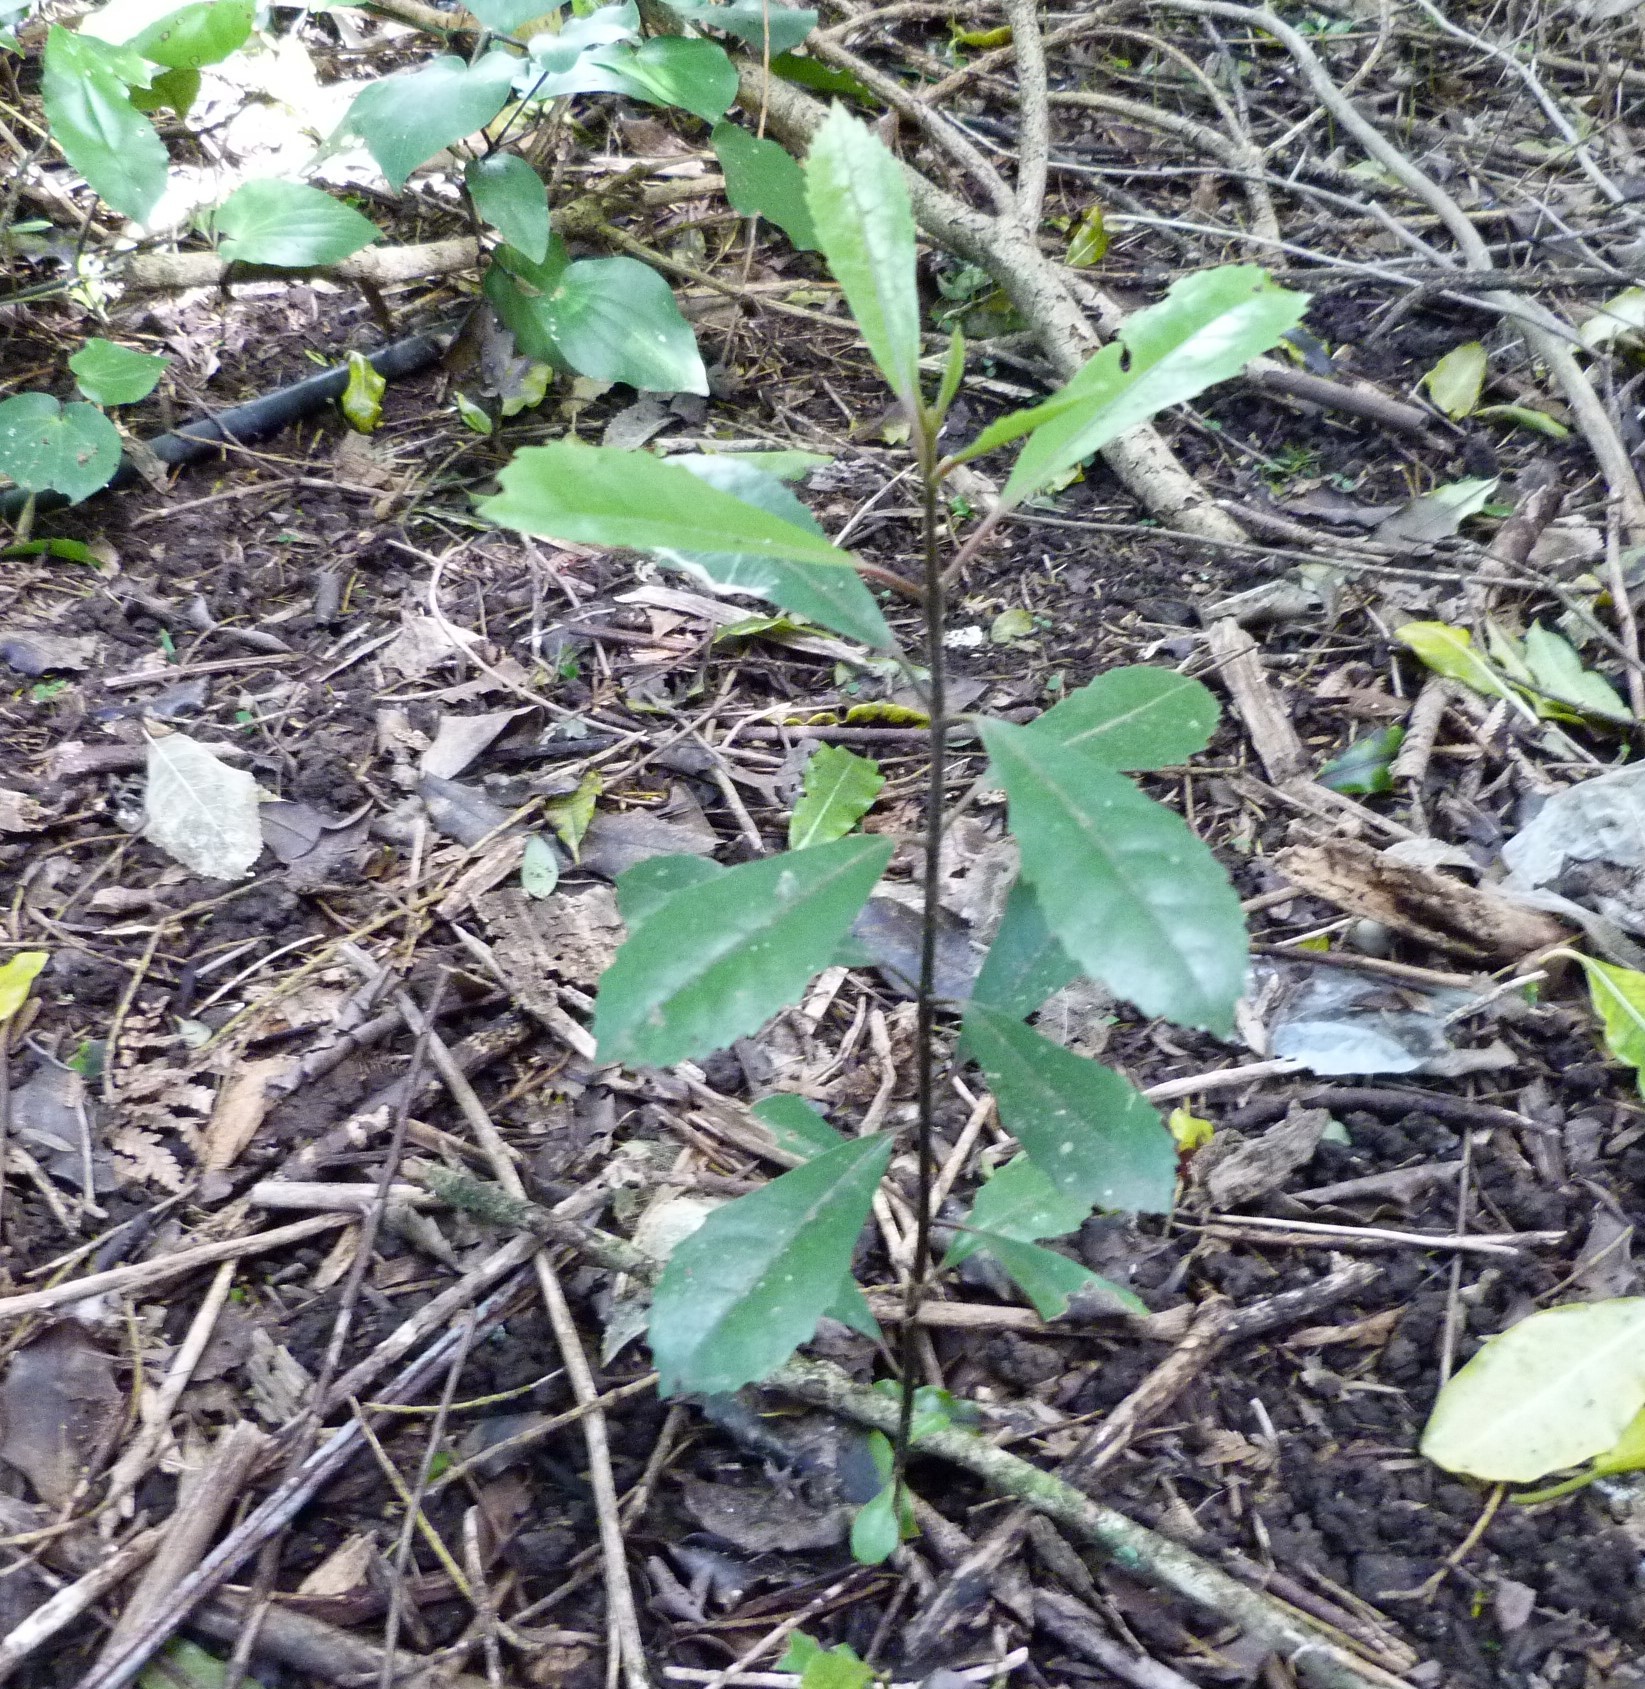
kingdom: Plantae
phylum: Tracheophyta
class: Magnoliopsida
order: Laurales
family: Monimiaceae
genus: Hedycarya
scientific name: Hedycarya arborea
